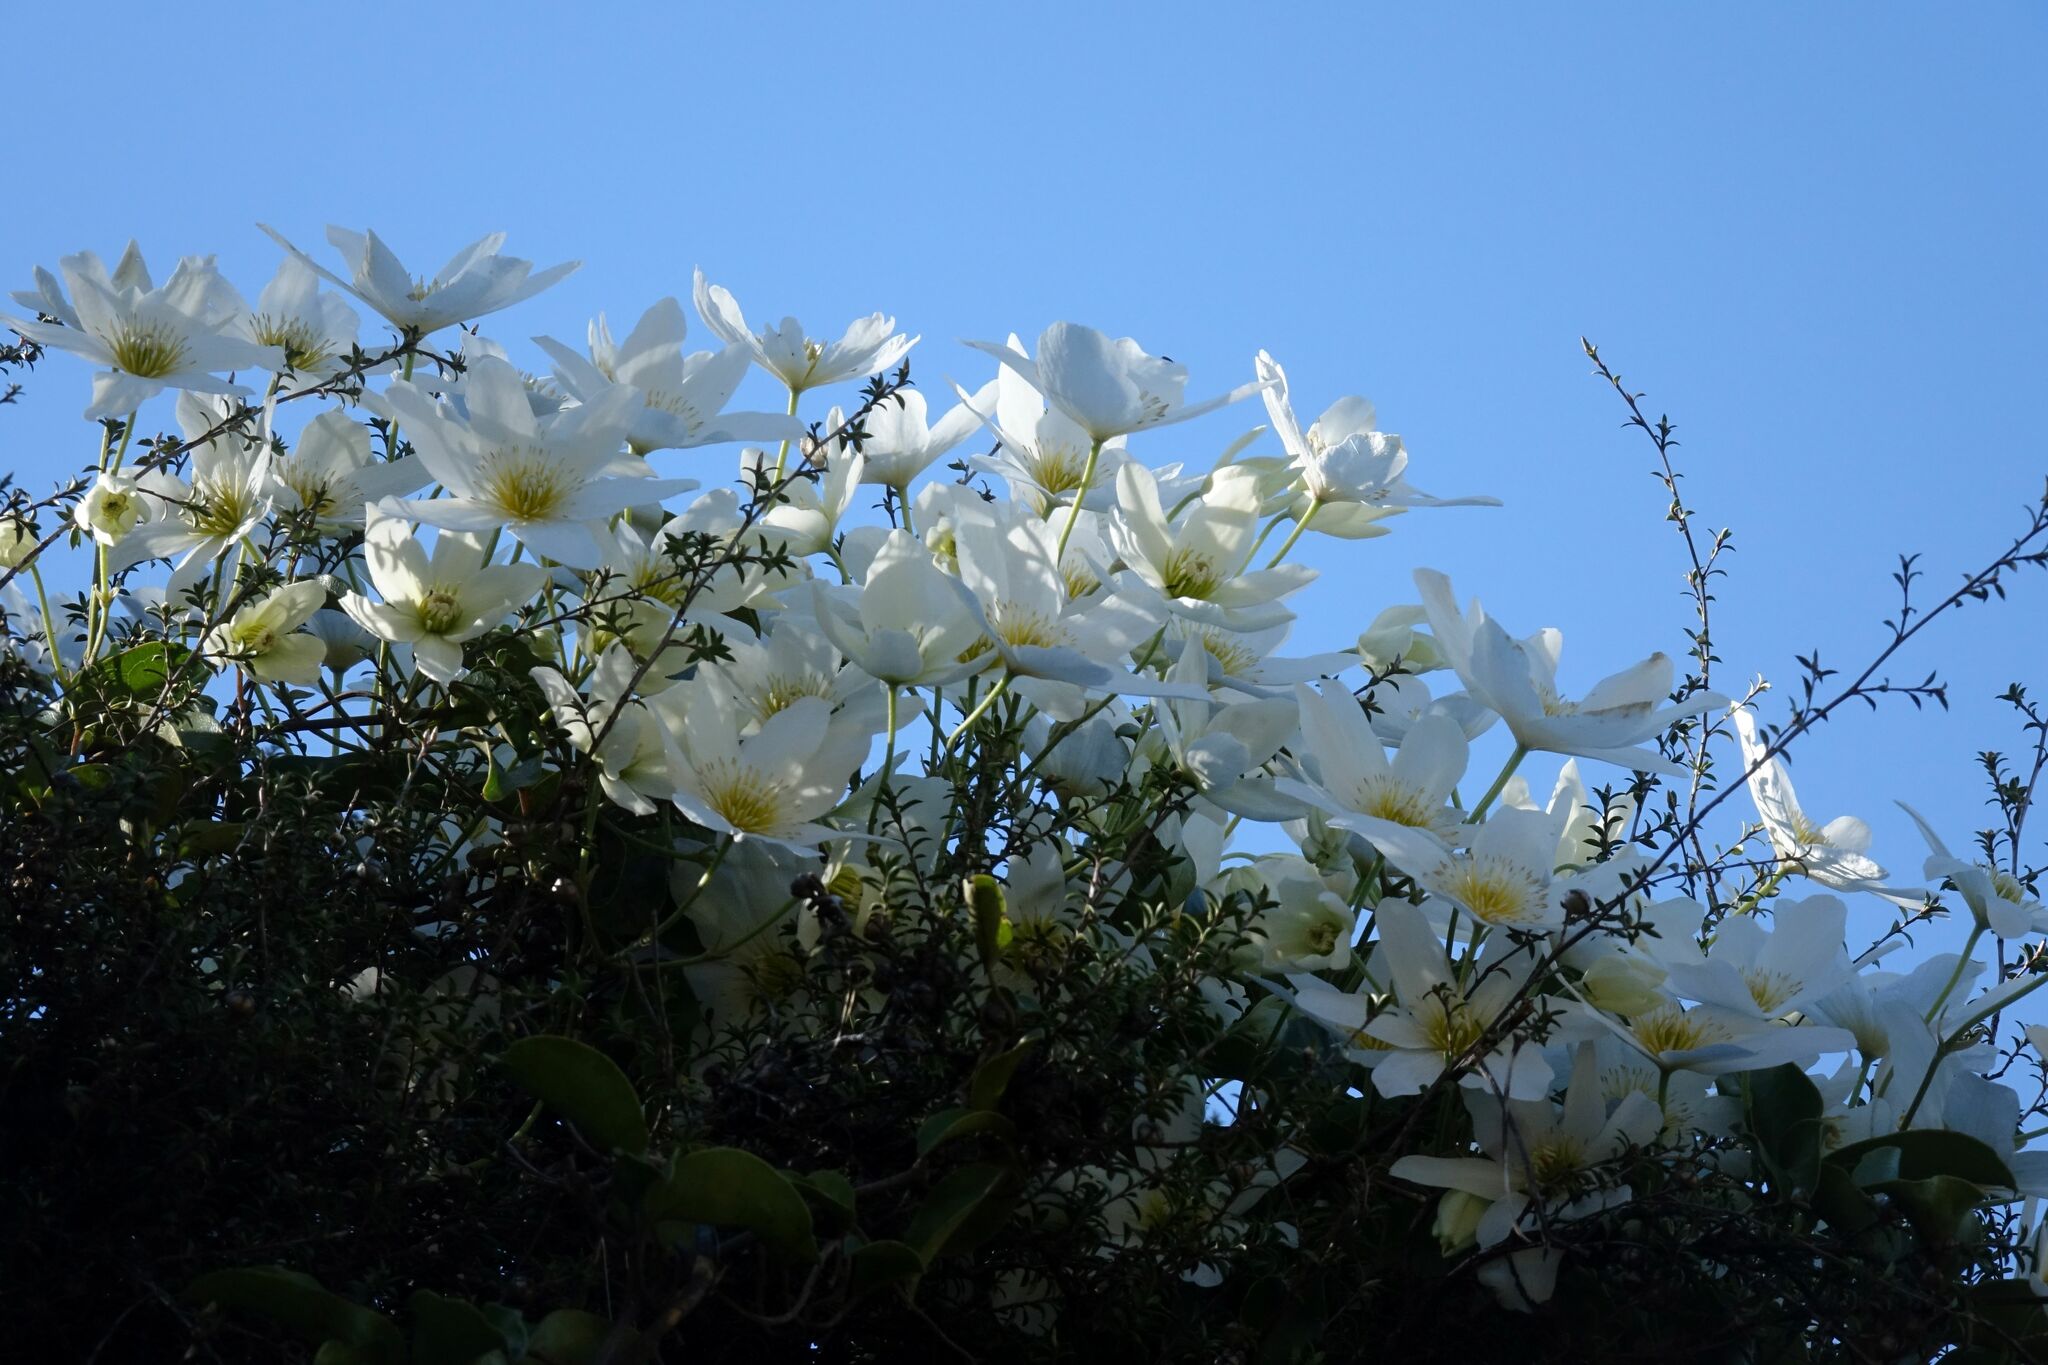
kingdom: Plantae
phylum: Tracheophyta
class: Magnoliopsida
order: Ranunculales
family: Ranunculaceae
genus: Clematis
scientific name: Clematis paniculata
